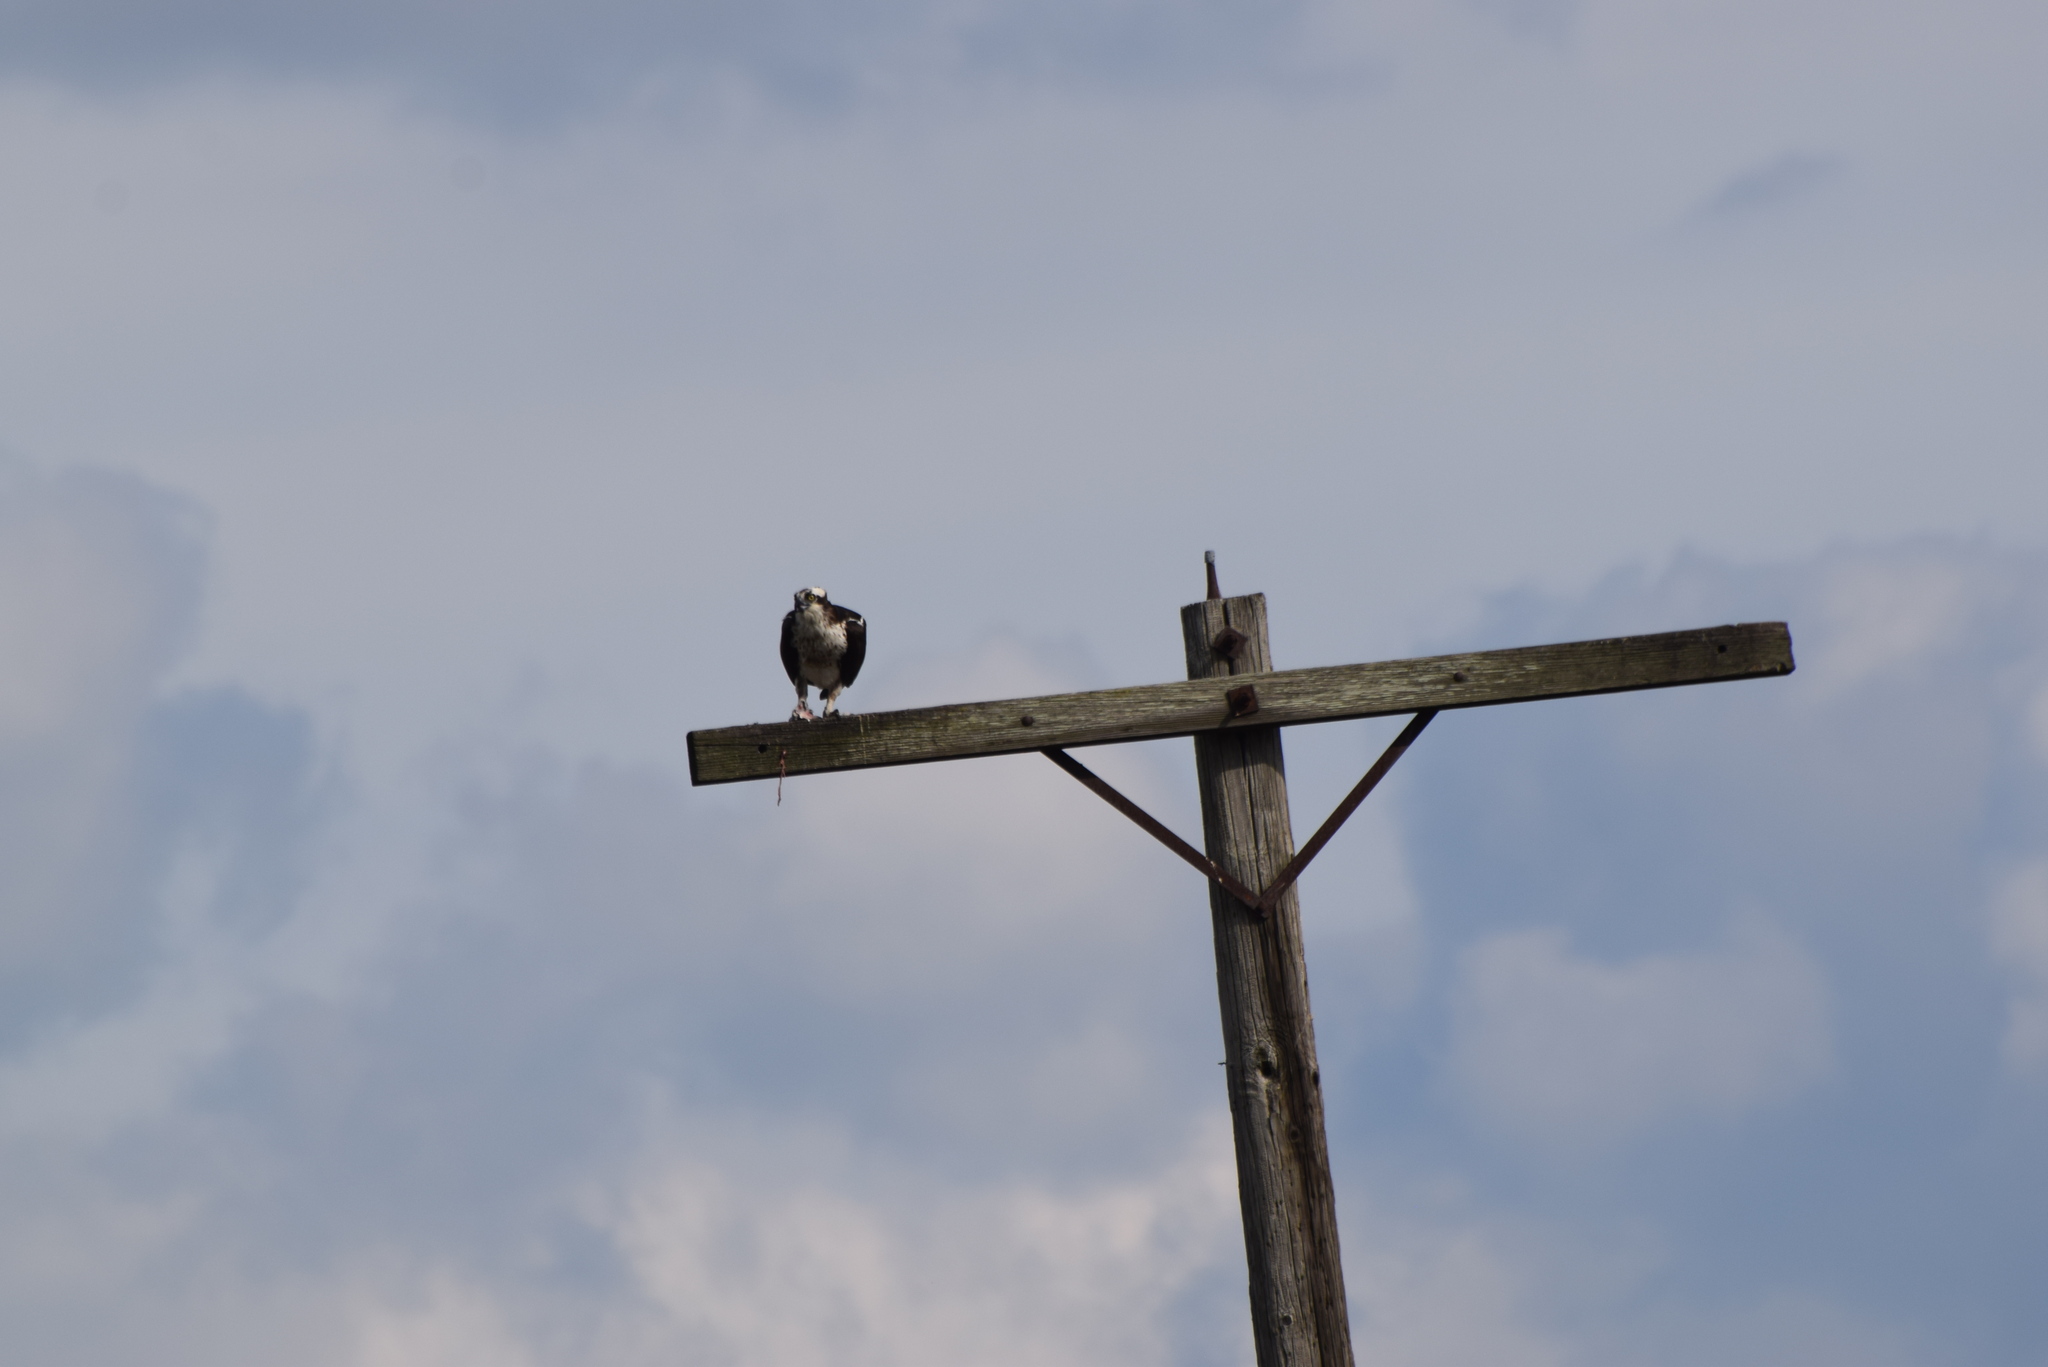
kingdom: Animalia
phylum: Chordata
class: Aves
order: Accipitriformes
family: Pandionidae
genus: Pandion
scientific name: Pandion haliaetus
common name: Osprey
